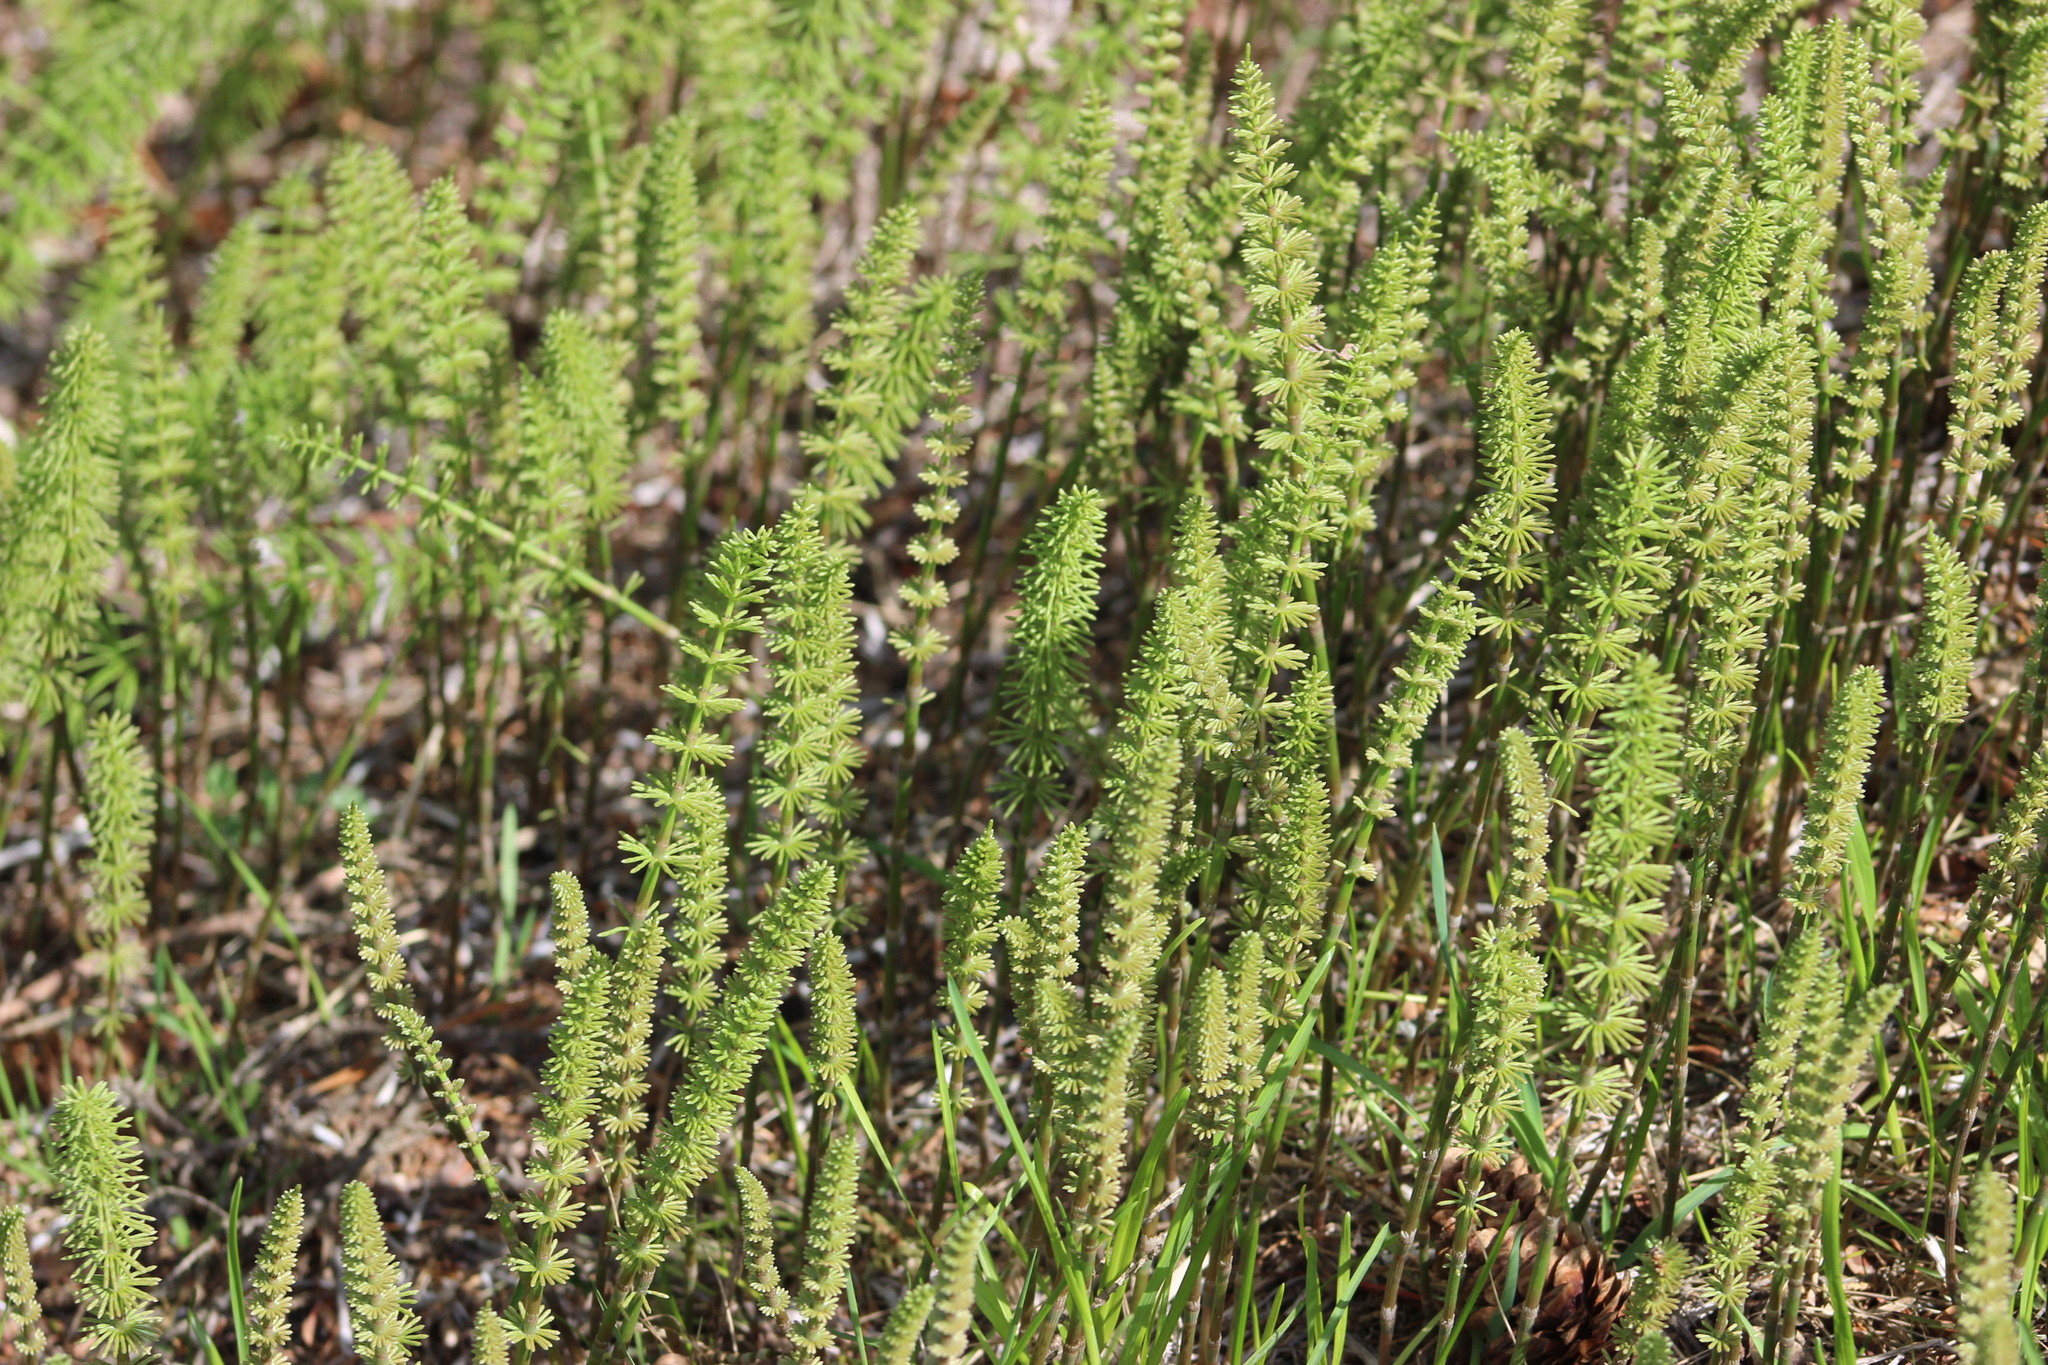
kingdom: Plantae
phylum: Tracheophyta
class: Polypodiopsida
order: Equisetales
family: Equisetaceae
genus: Equisetum
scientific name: Equisetum pratense
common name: Meadow horsetail
